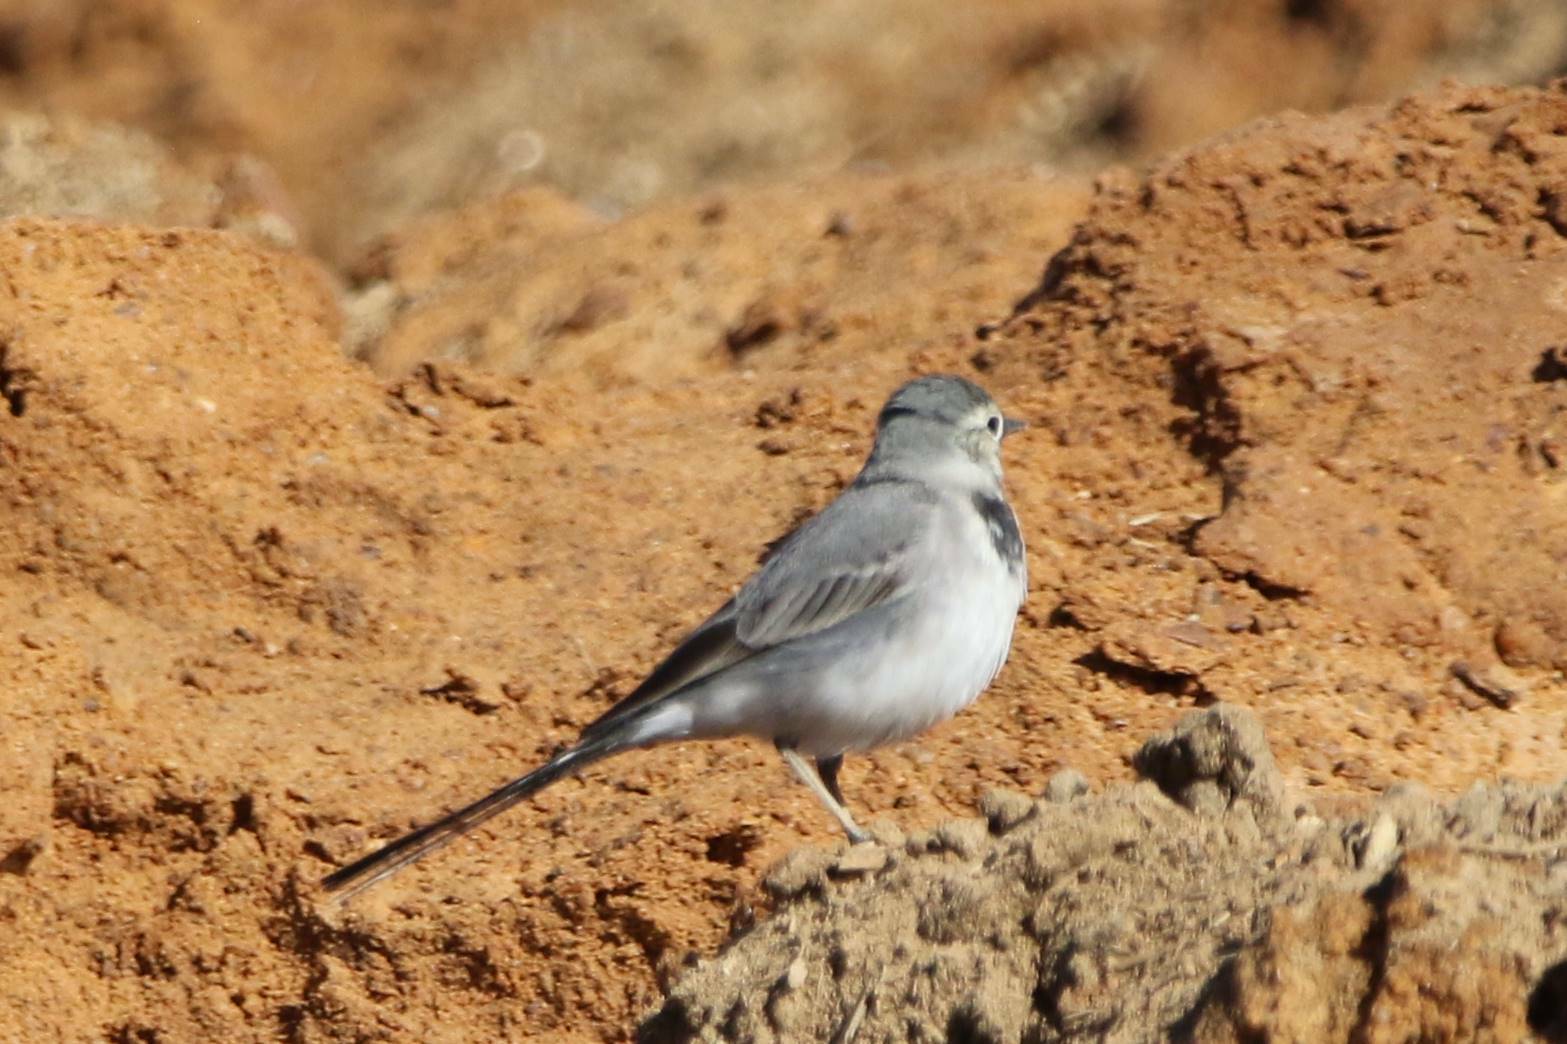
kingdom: Animalia
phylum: Chordata
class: Aves
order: Passeriformes
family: Motacillidae
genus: Motacilla
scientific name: Motacilla alba
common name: White wagtail
